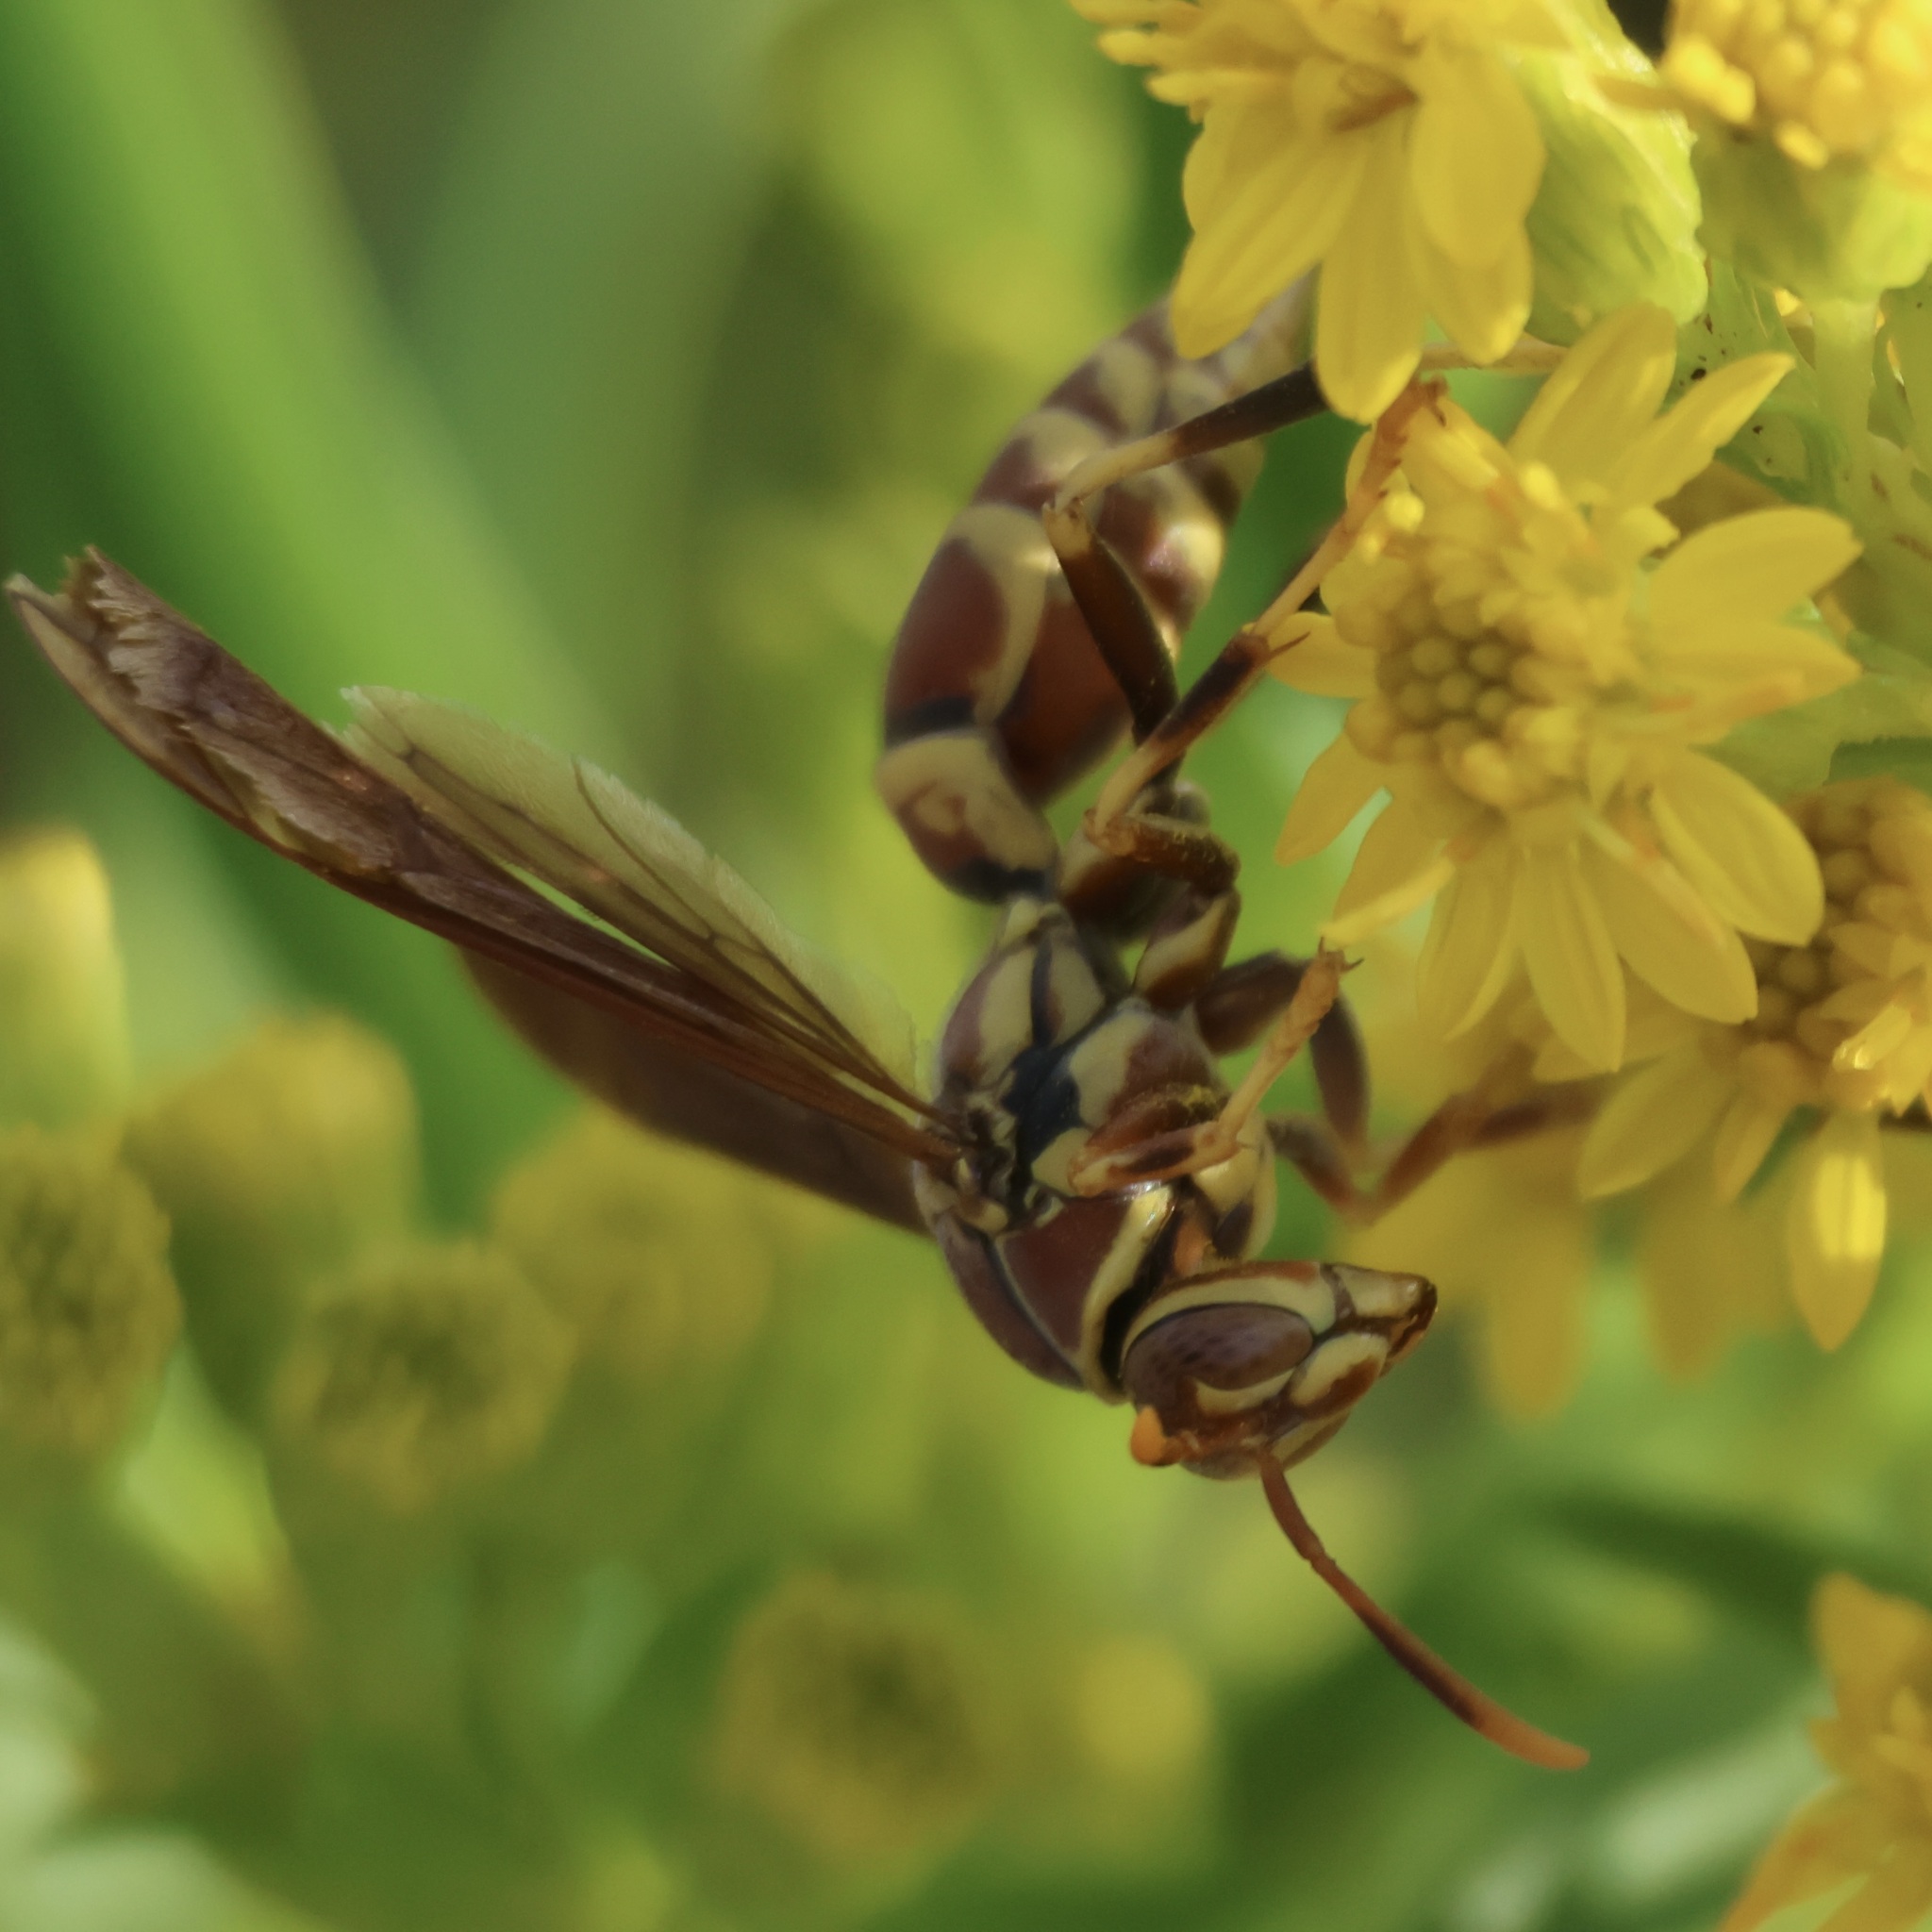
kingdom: Animalia
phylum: Arthropoda
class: Insecta
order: Hymenoptera
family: Eumenidae
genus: Polistes
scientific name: Polistes exclamans
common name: Paper wasp
